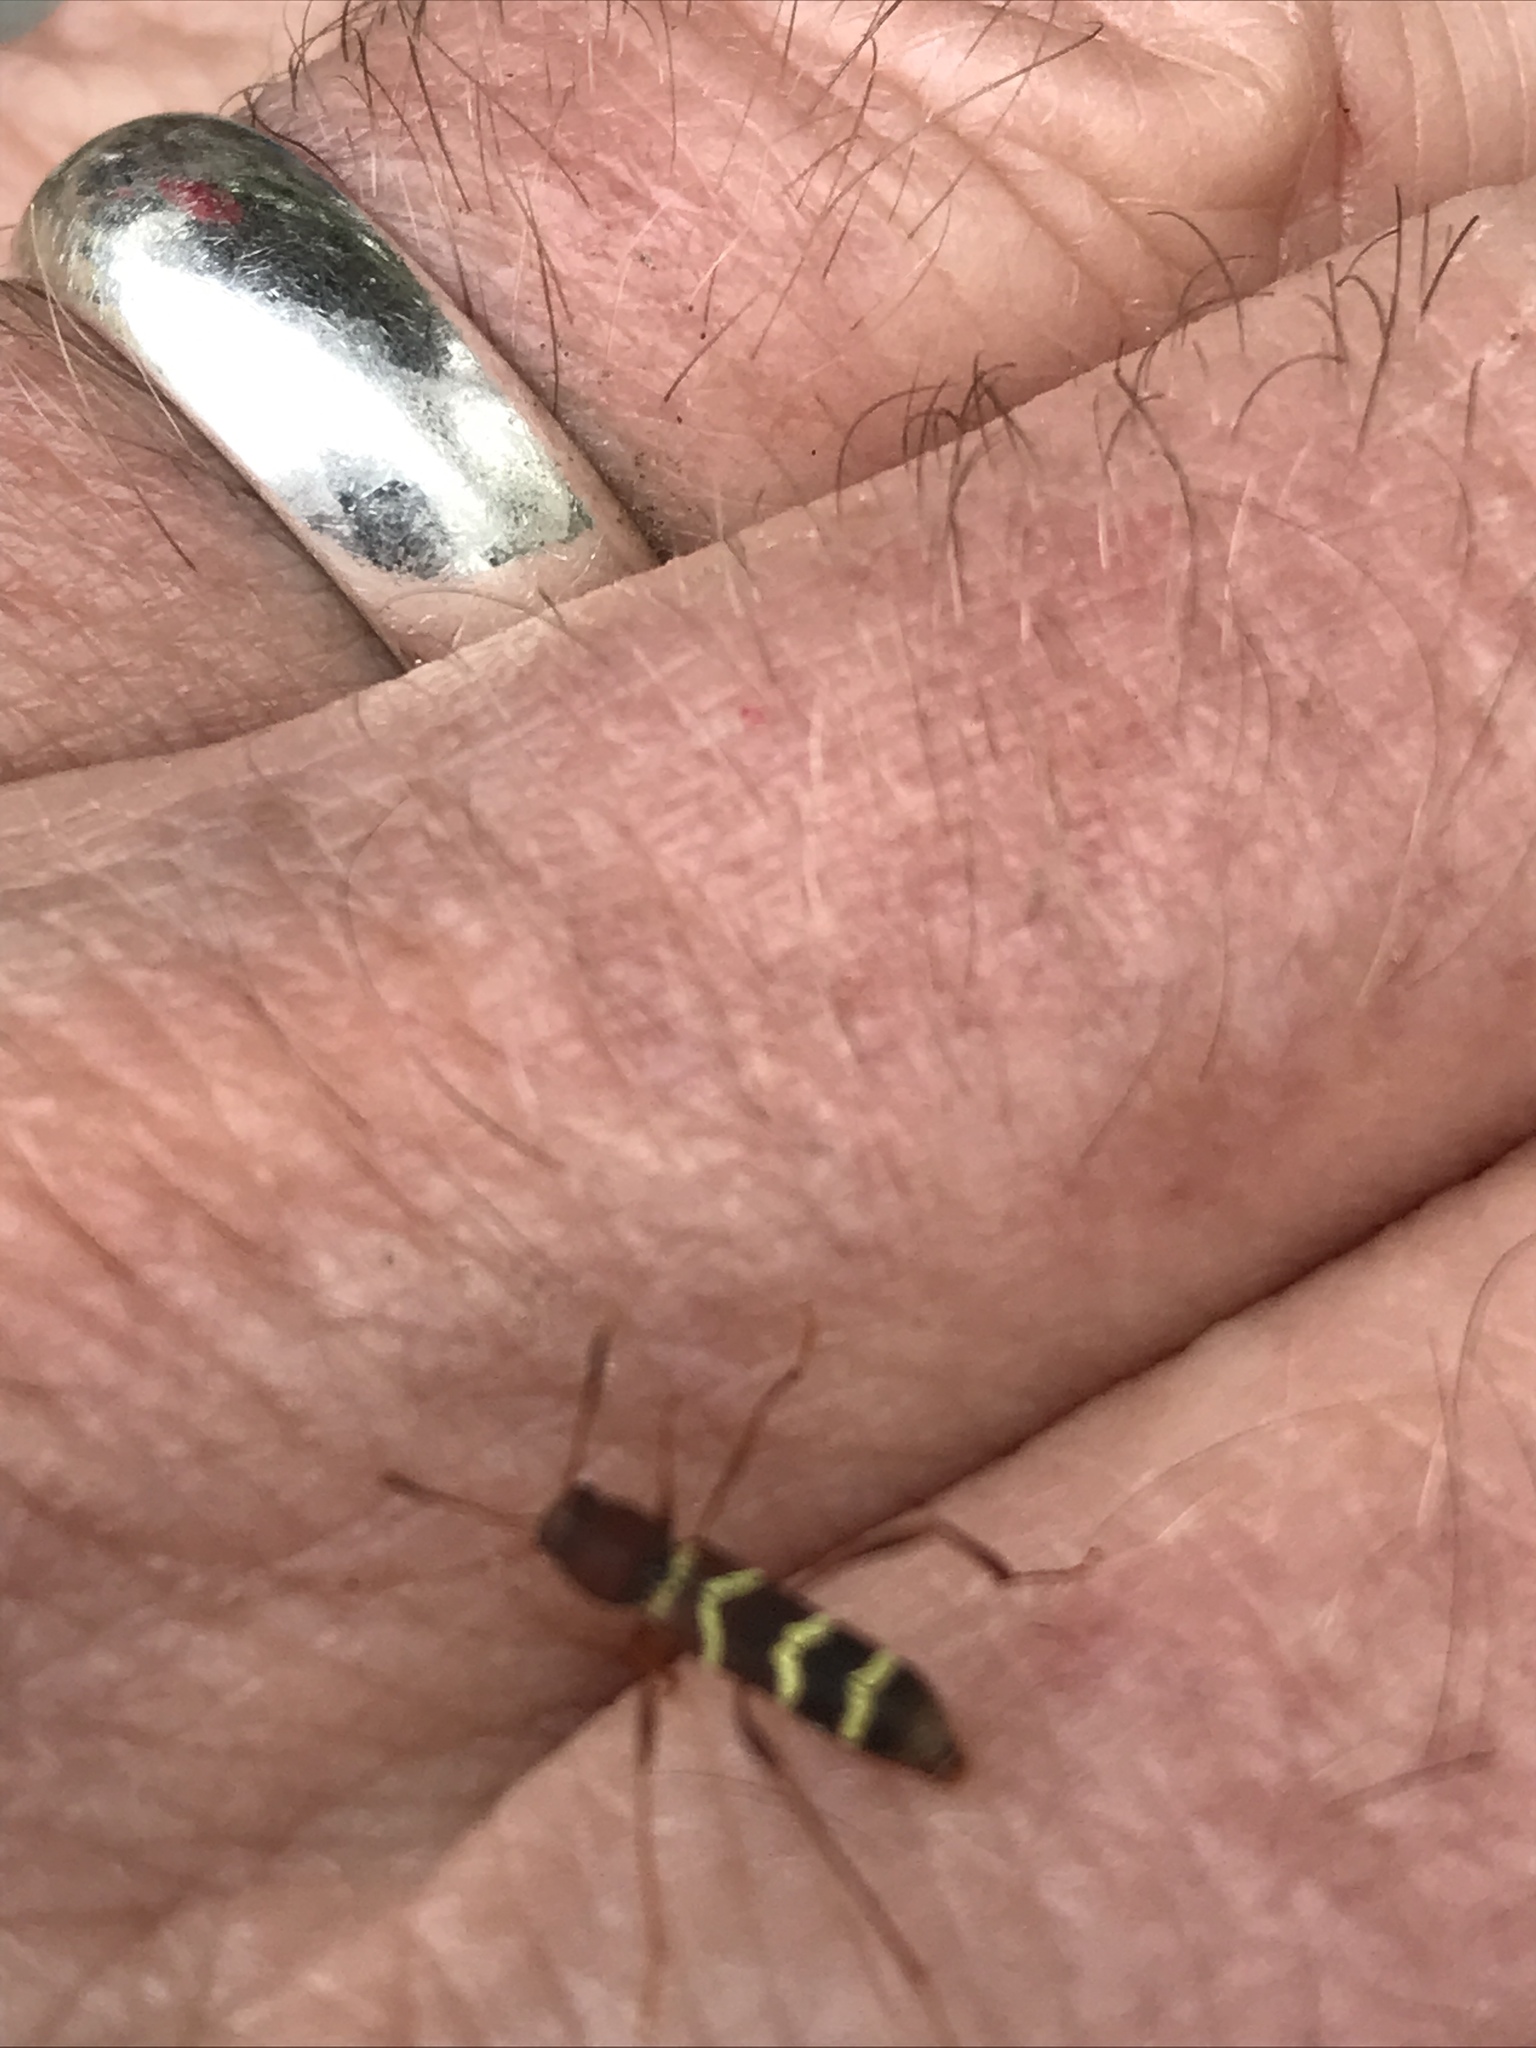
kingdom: Animalia
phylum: Arthropoda
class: Insecta
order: Coleoptera
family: Cerambycidae
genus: Neoclytus
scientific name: Neoclytus acuminatus
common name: Read-headed ash borer
